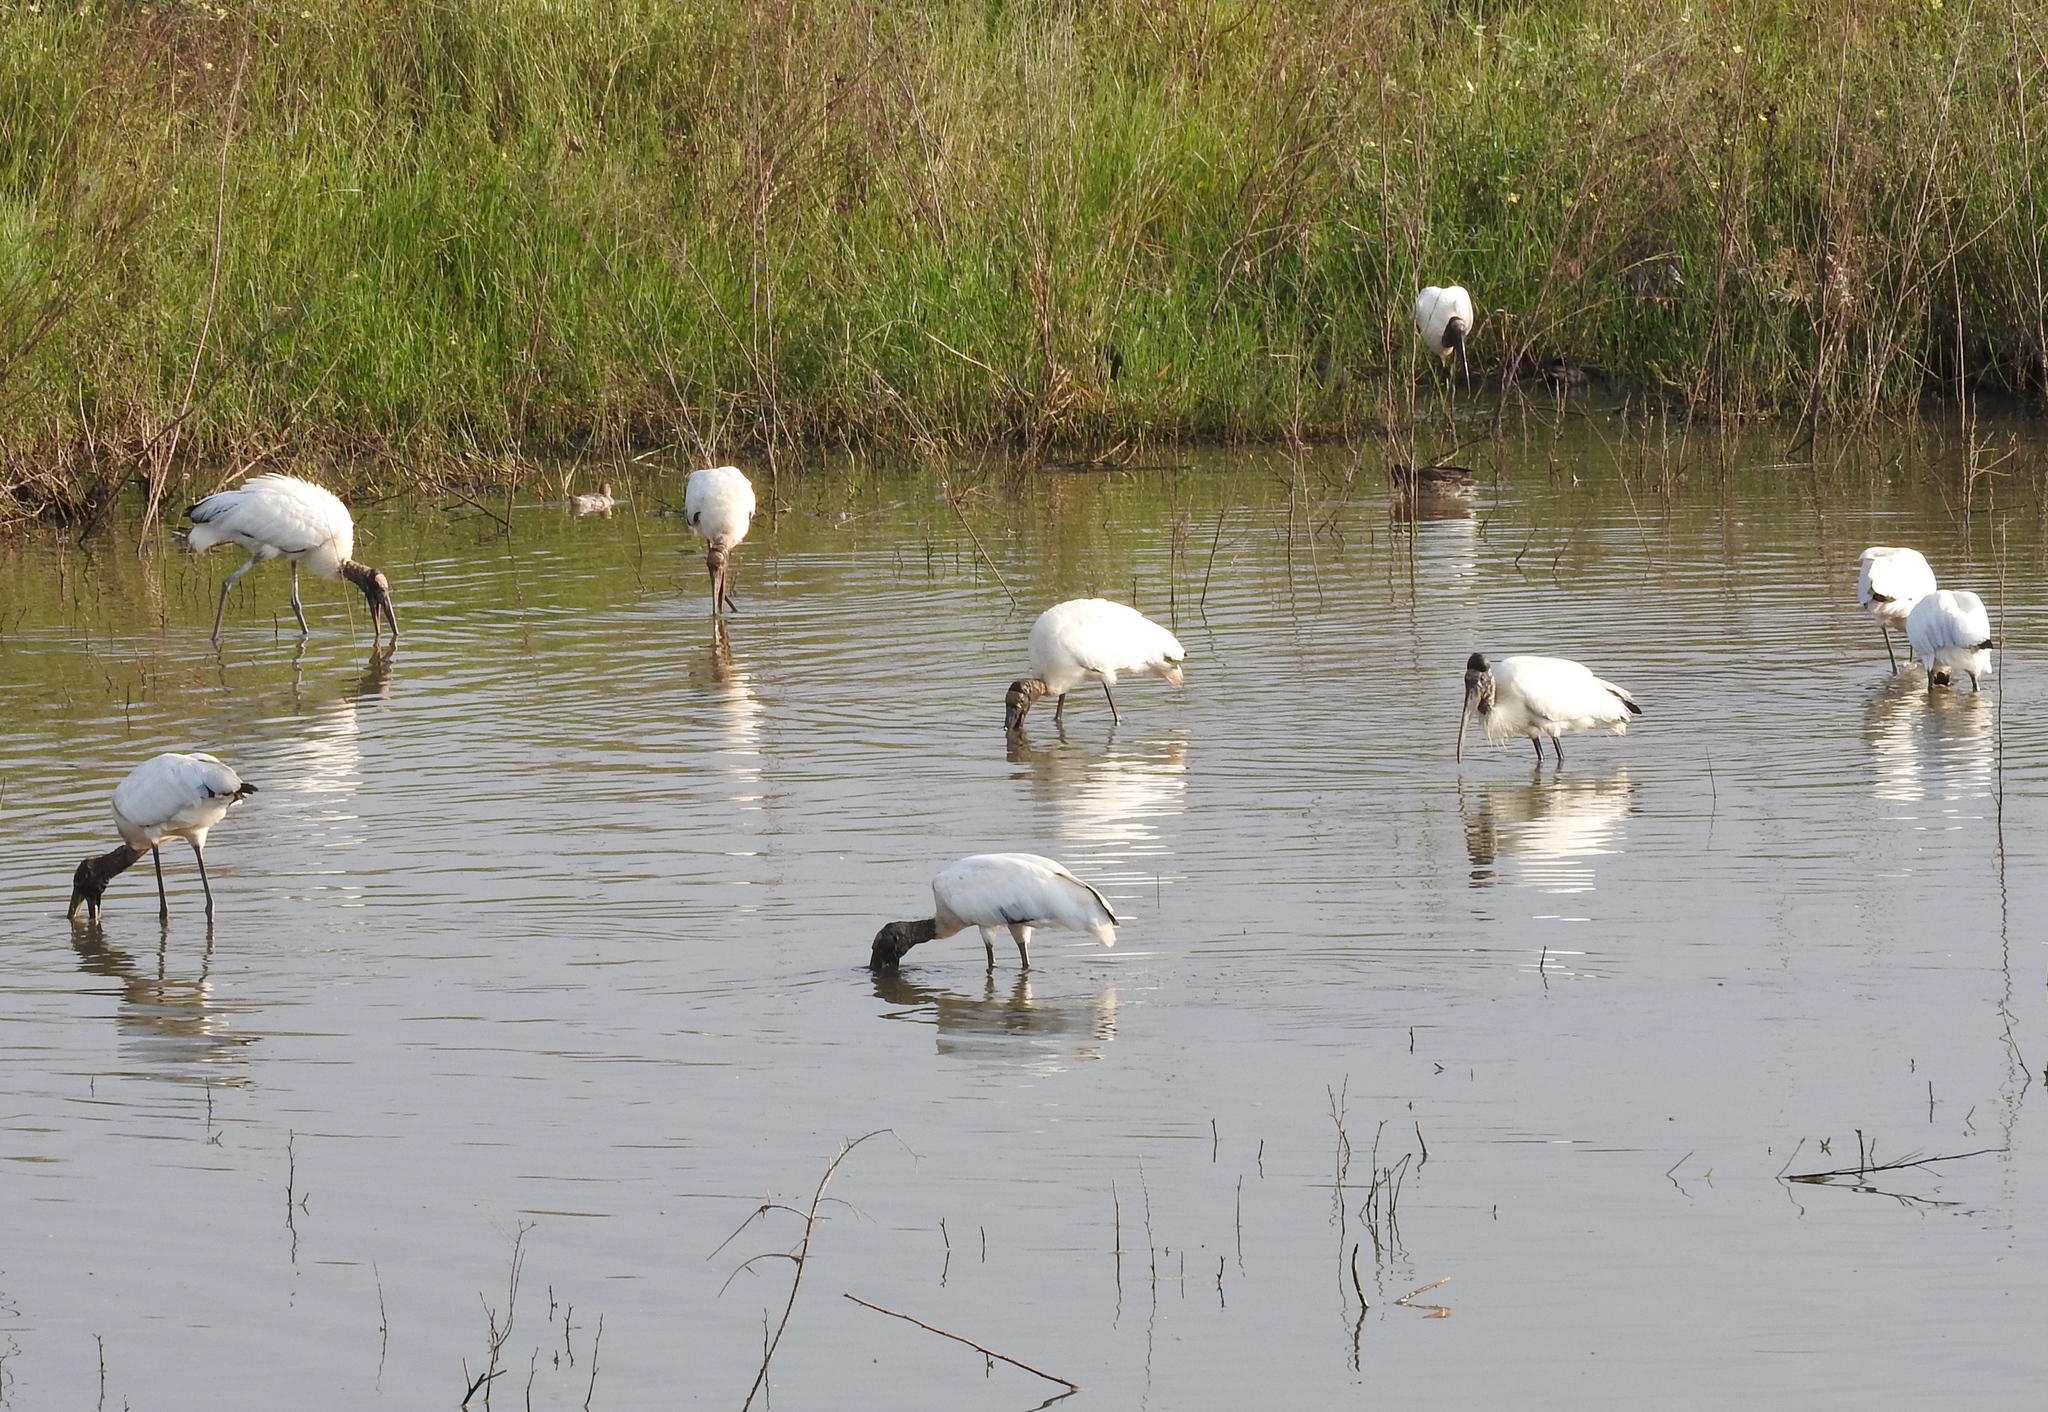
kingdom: Animalia
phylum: Chordata
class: Aves
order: Ciconiiformes
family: Ciconiidae
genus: Mycteria
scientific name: Mycteria americana
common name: Wood stork
